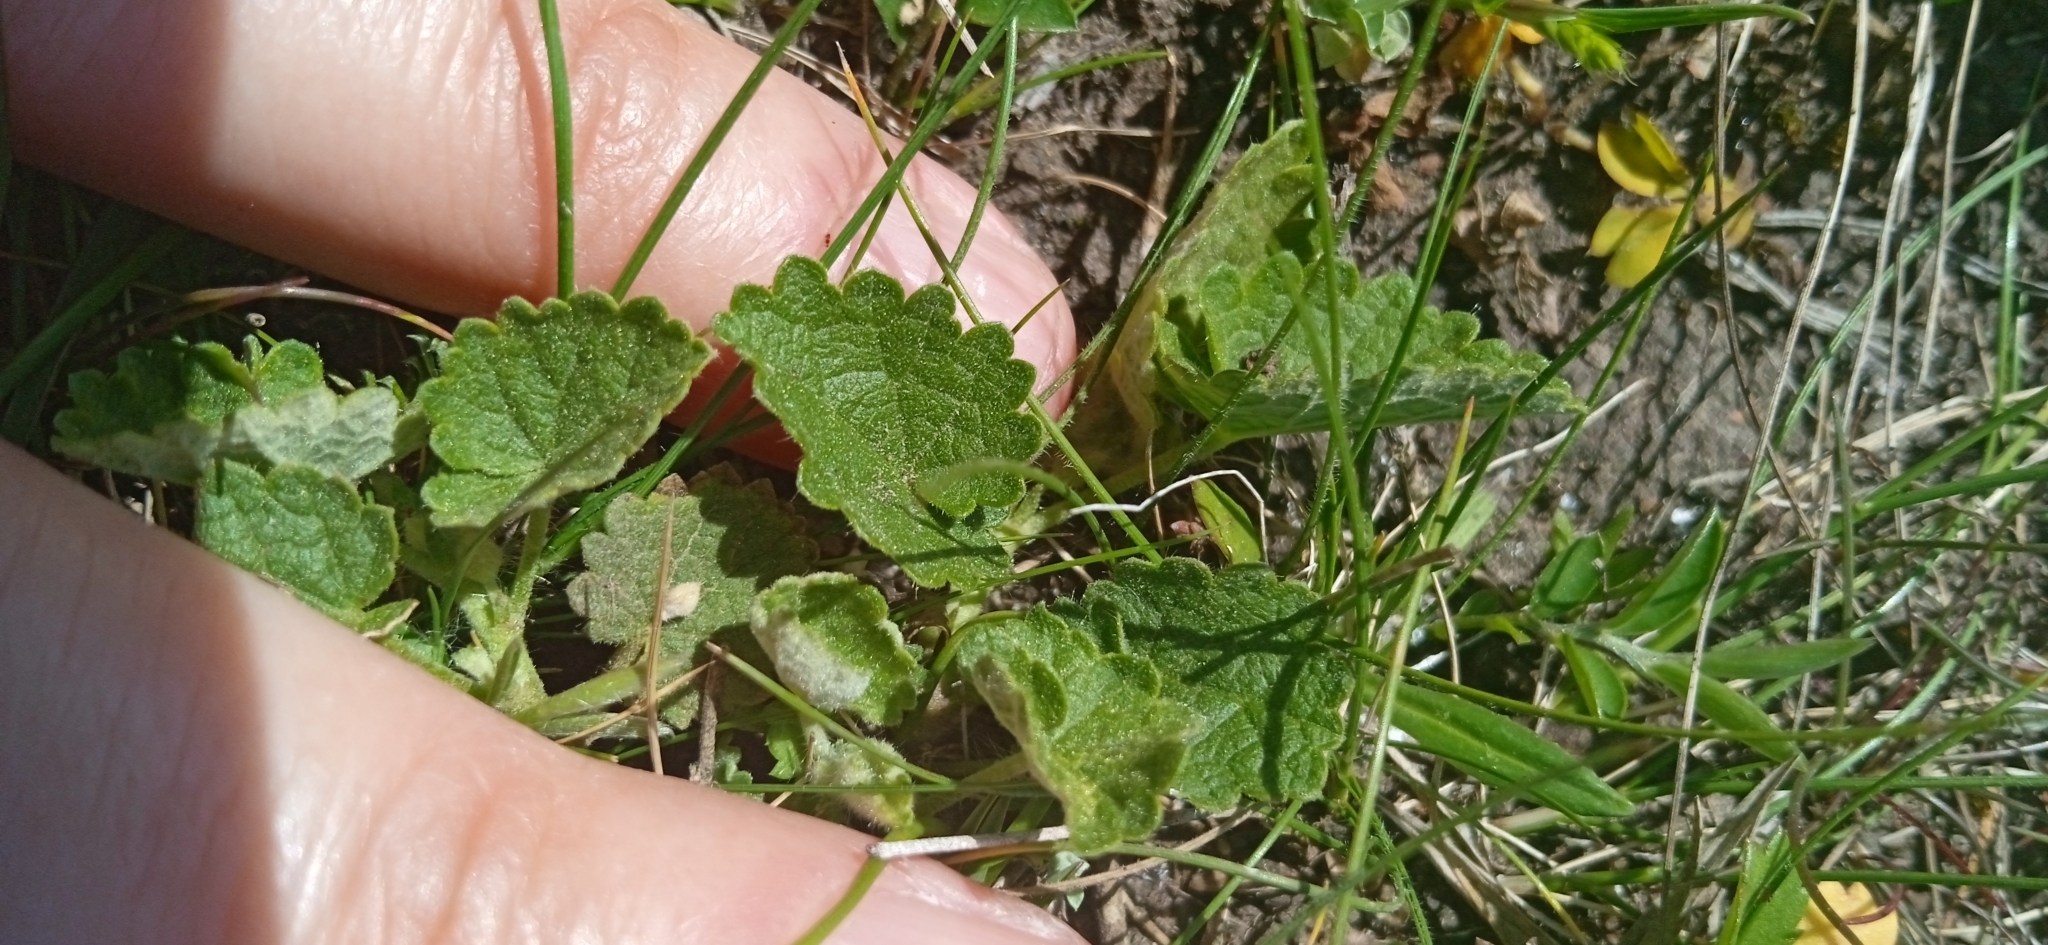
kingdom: Plantae
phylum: Tracheophyta
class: Magnoliopsida
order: Malvales
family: Malvaceae
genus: Krapovickasia
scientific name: Krapovickasia flavescens
